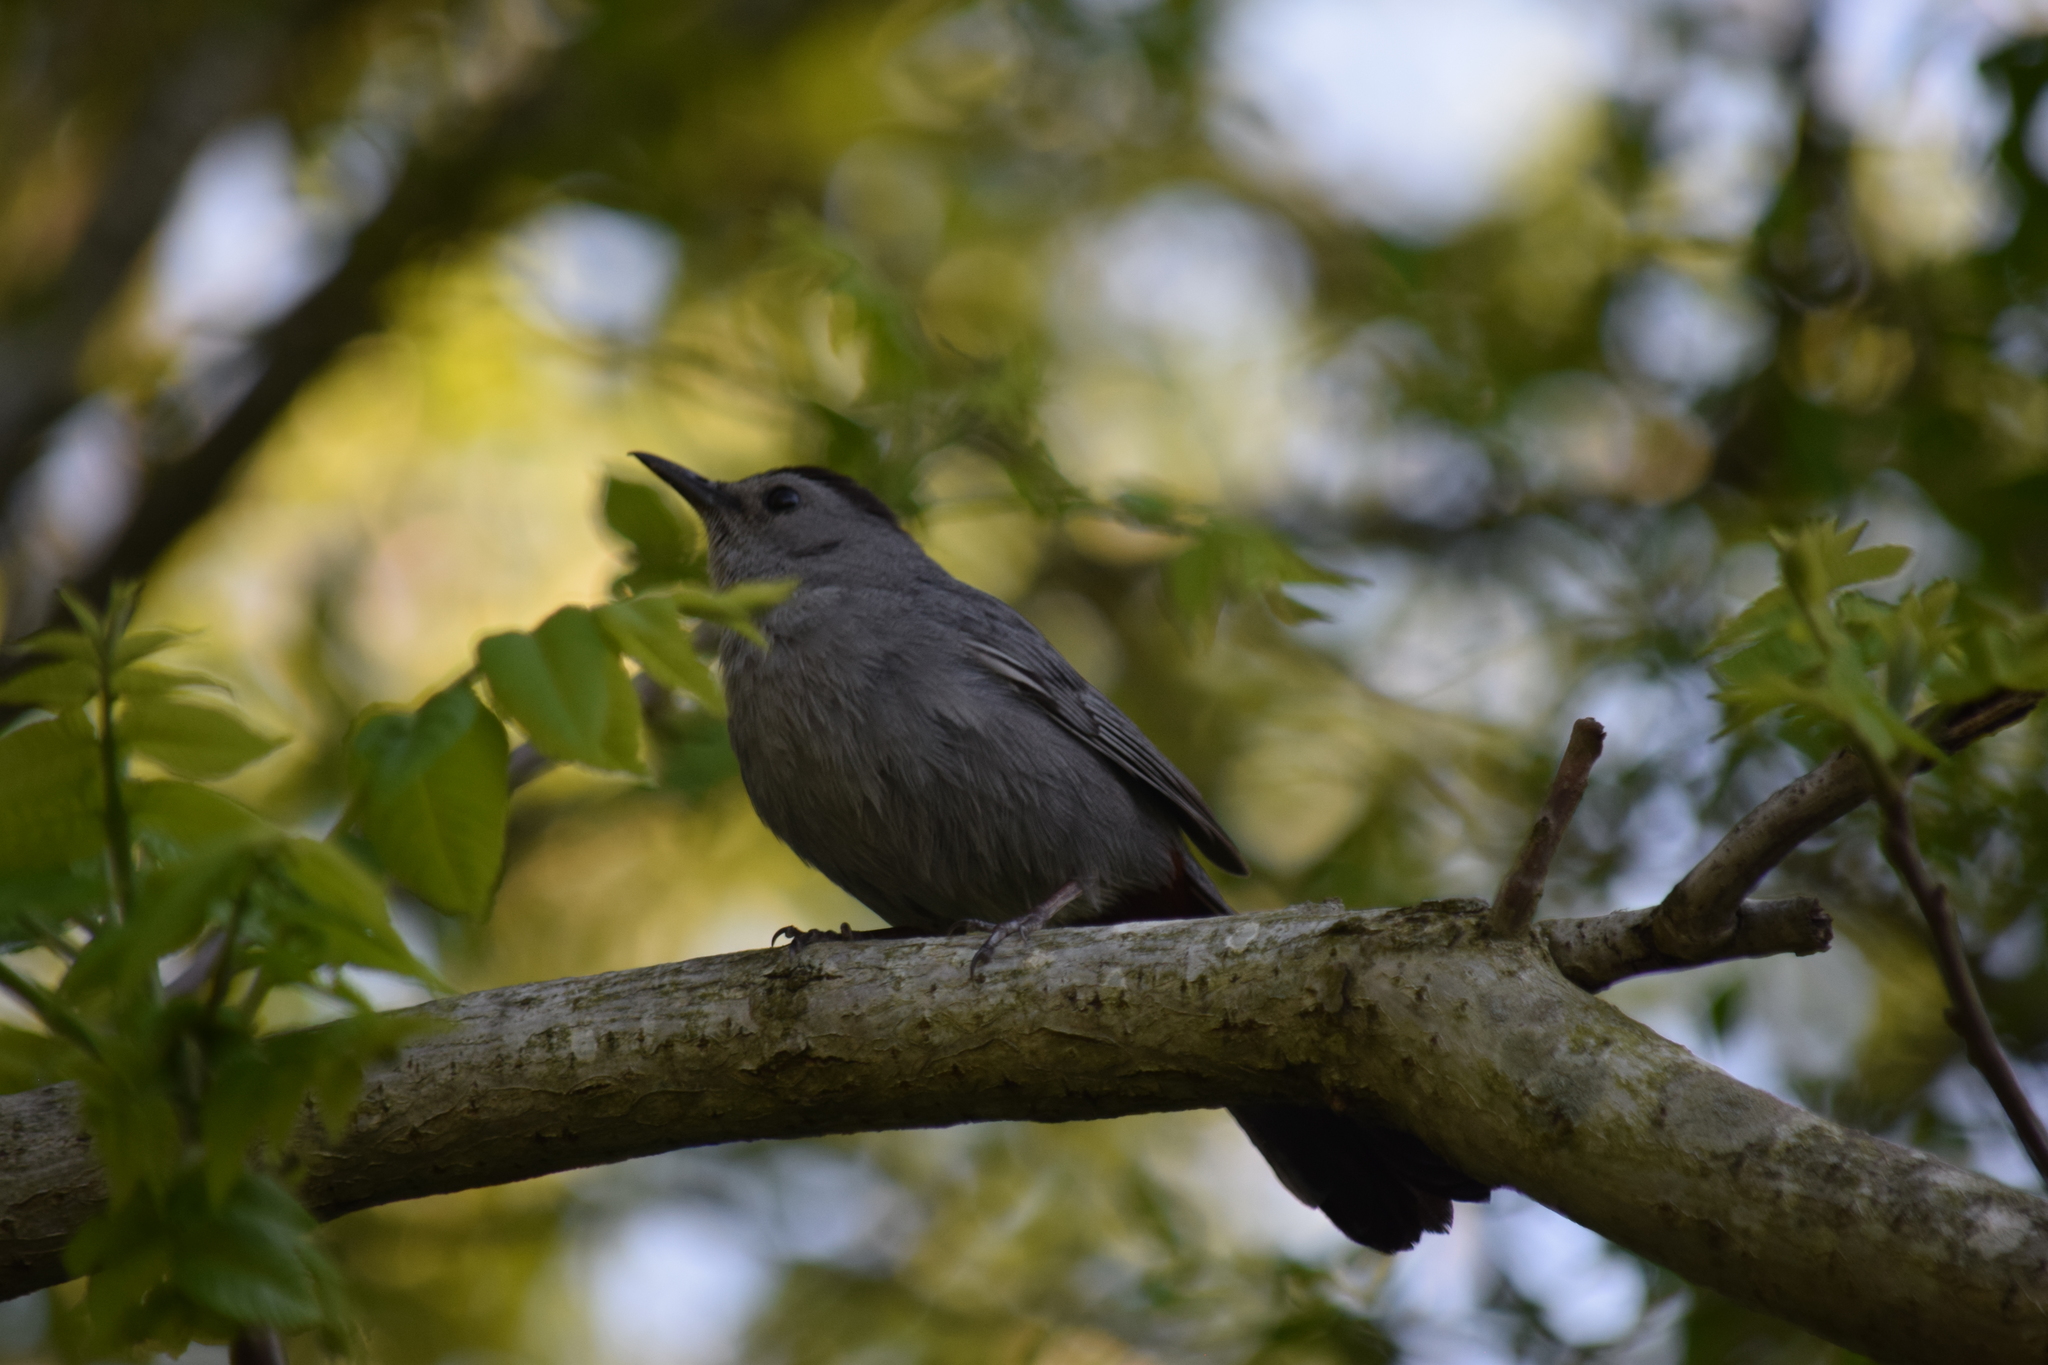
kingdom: Animalia
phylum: Chordata
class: Aves
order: Passeriformes
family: Mimidae
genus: Dumetella
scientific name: Dumetella carolinensis
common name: Gray catbird
